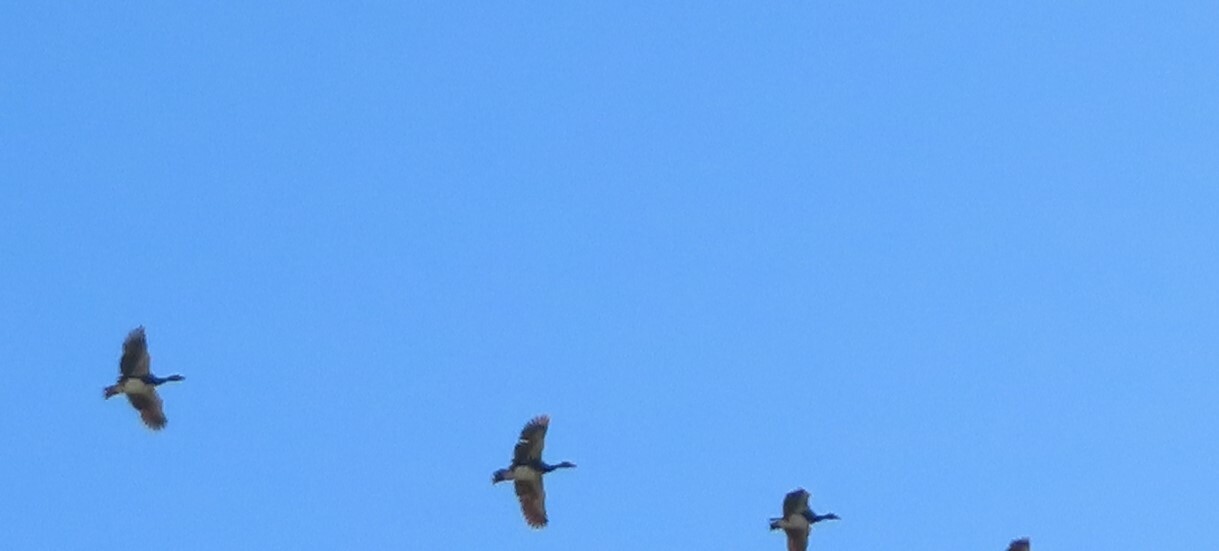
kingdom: Animalia
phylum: Chordata
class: Aves
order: Anseriformes
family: Anatidae
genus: Plectropterus
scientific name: Plectropterus gambensis
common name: Spur-winged goose
